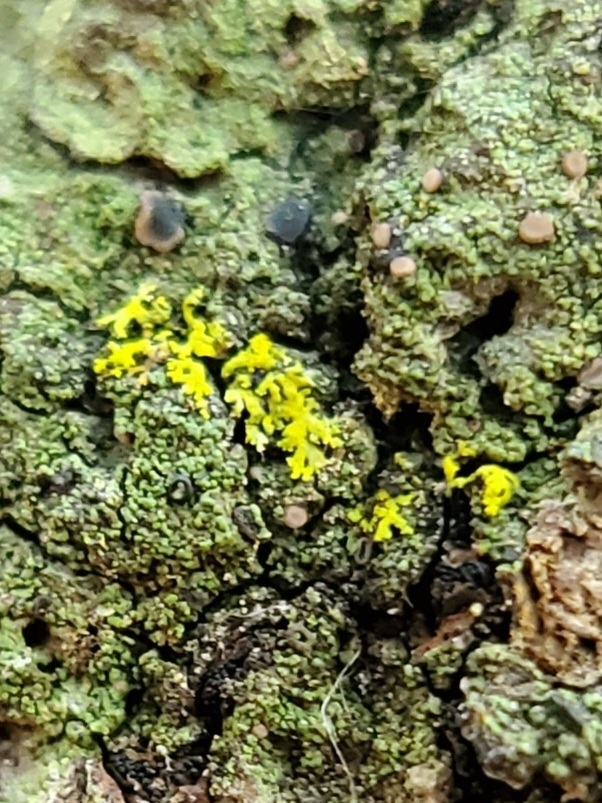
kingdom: Fungi
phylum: Ascomycota
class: Candelariomycetes
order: Candelariales
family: Candelariaceae
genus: Candelaria
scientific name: Candelaria concolor
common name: Candleflame lichen
